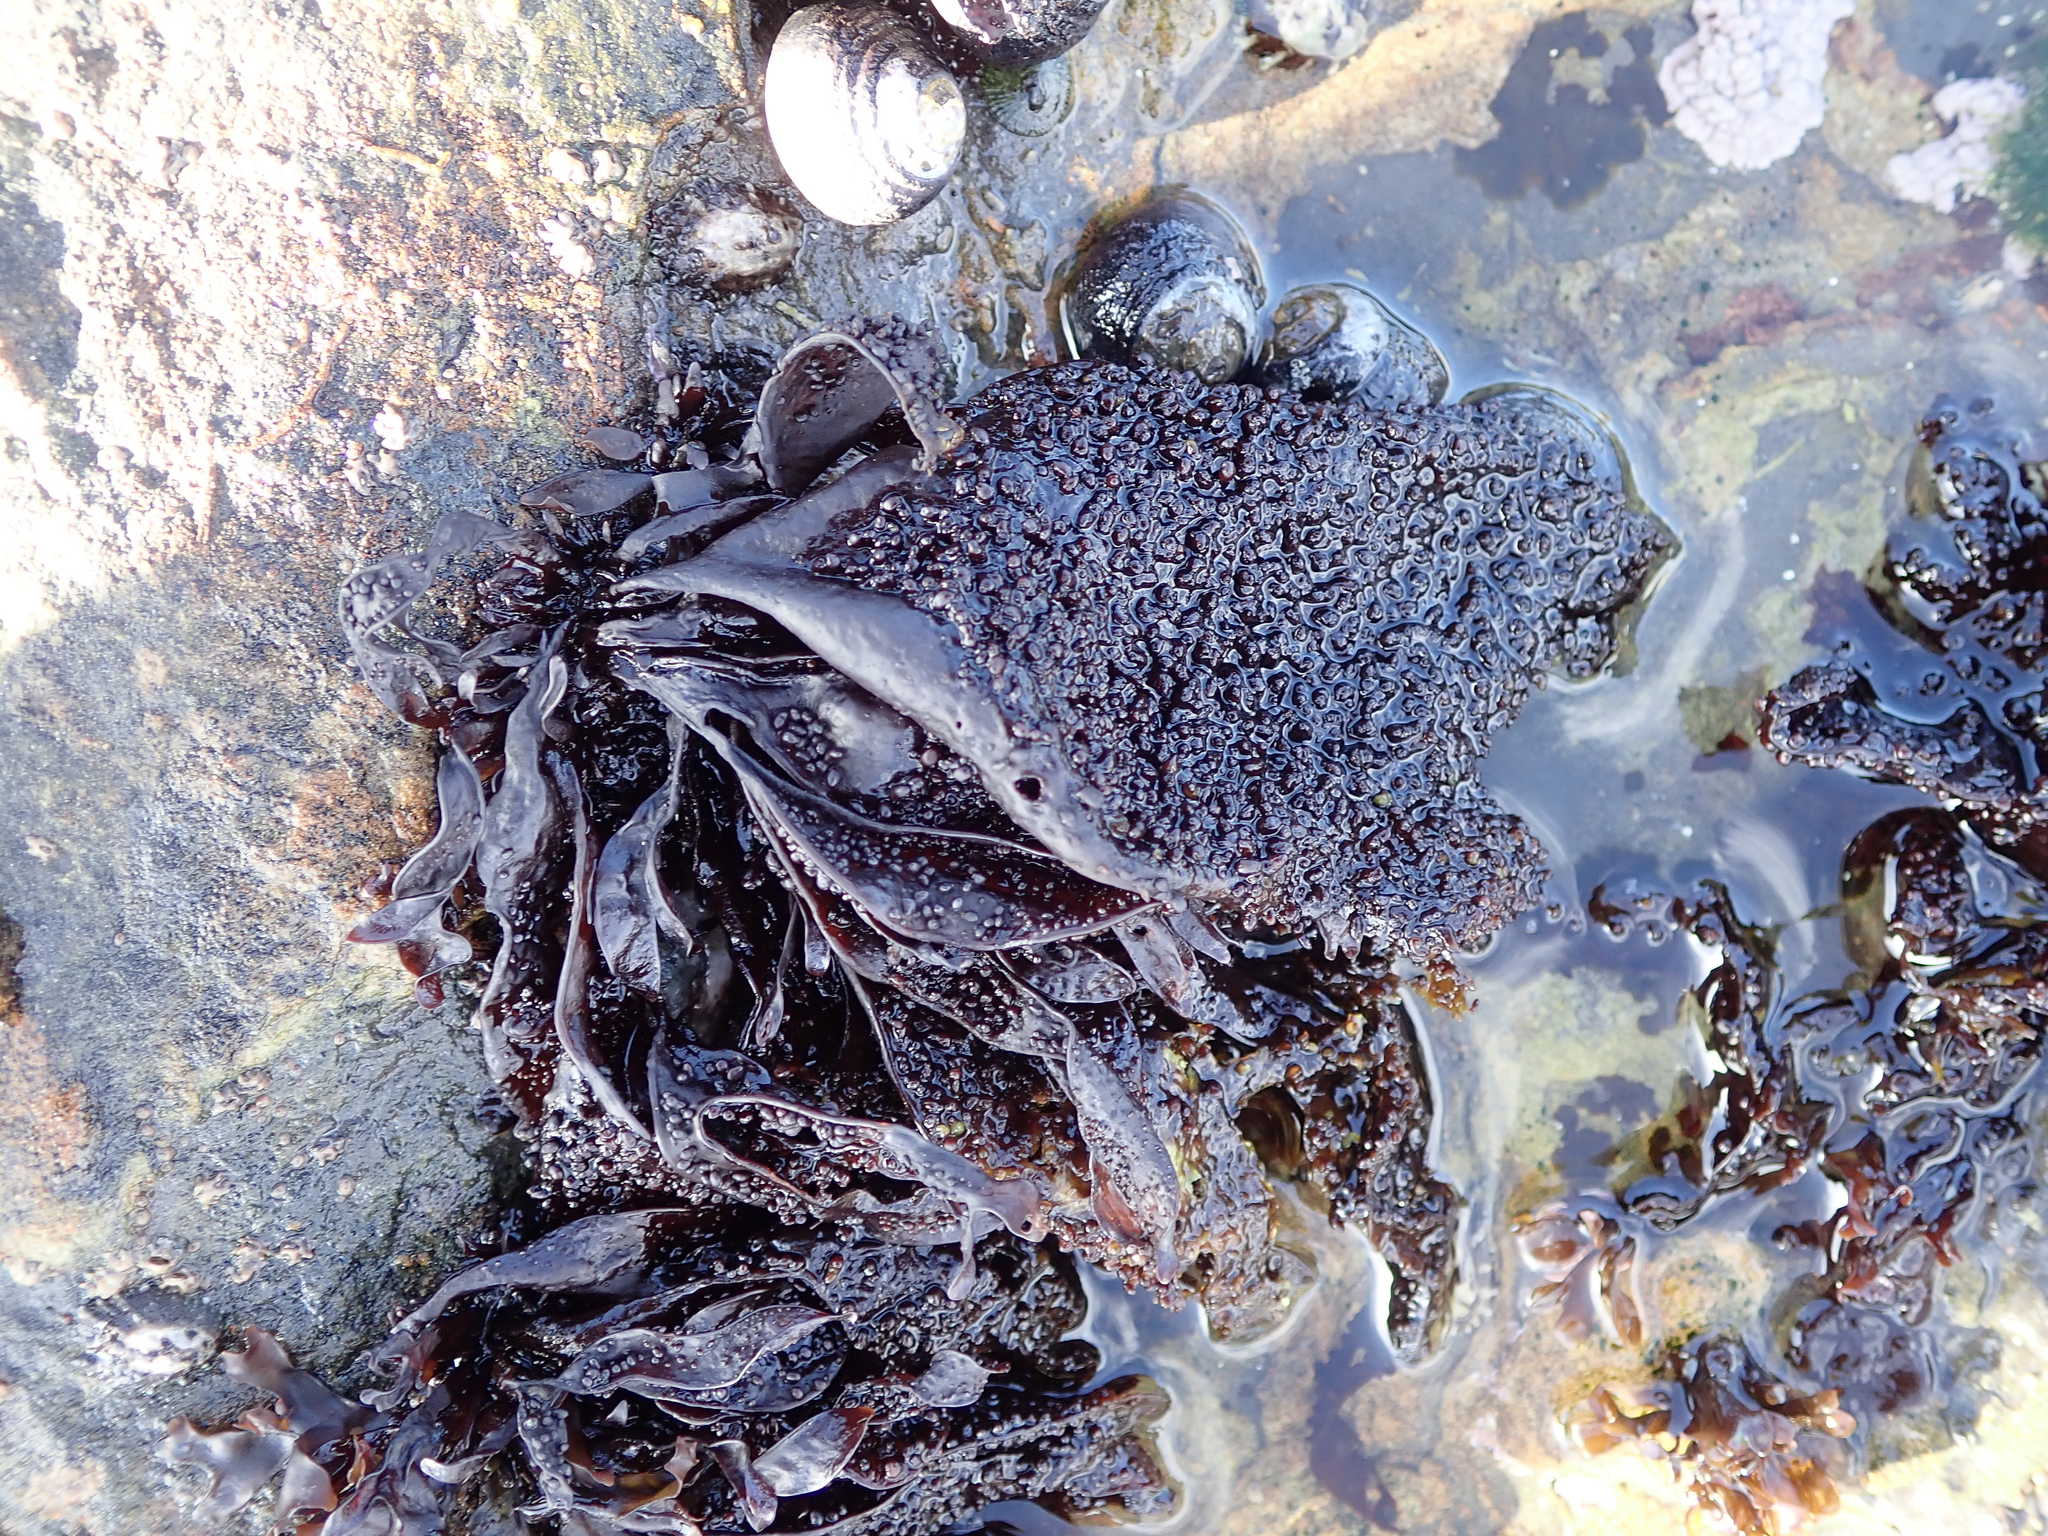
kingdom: Plantae
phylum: Rhodophyta
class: Florideophyceae
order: Gigartinales
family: Phyllophoraceae
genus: Mastocarpus
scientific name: Mastocarpus papillatus
